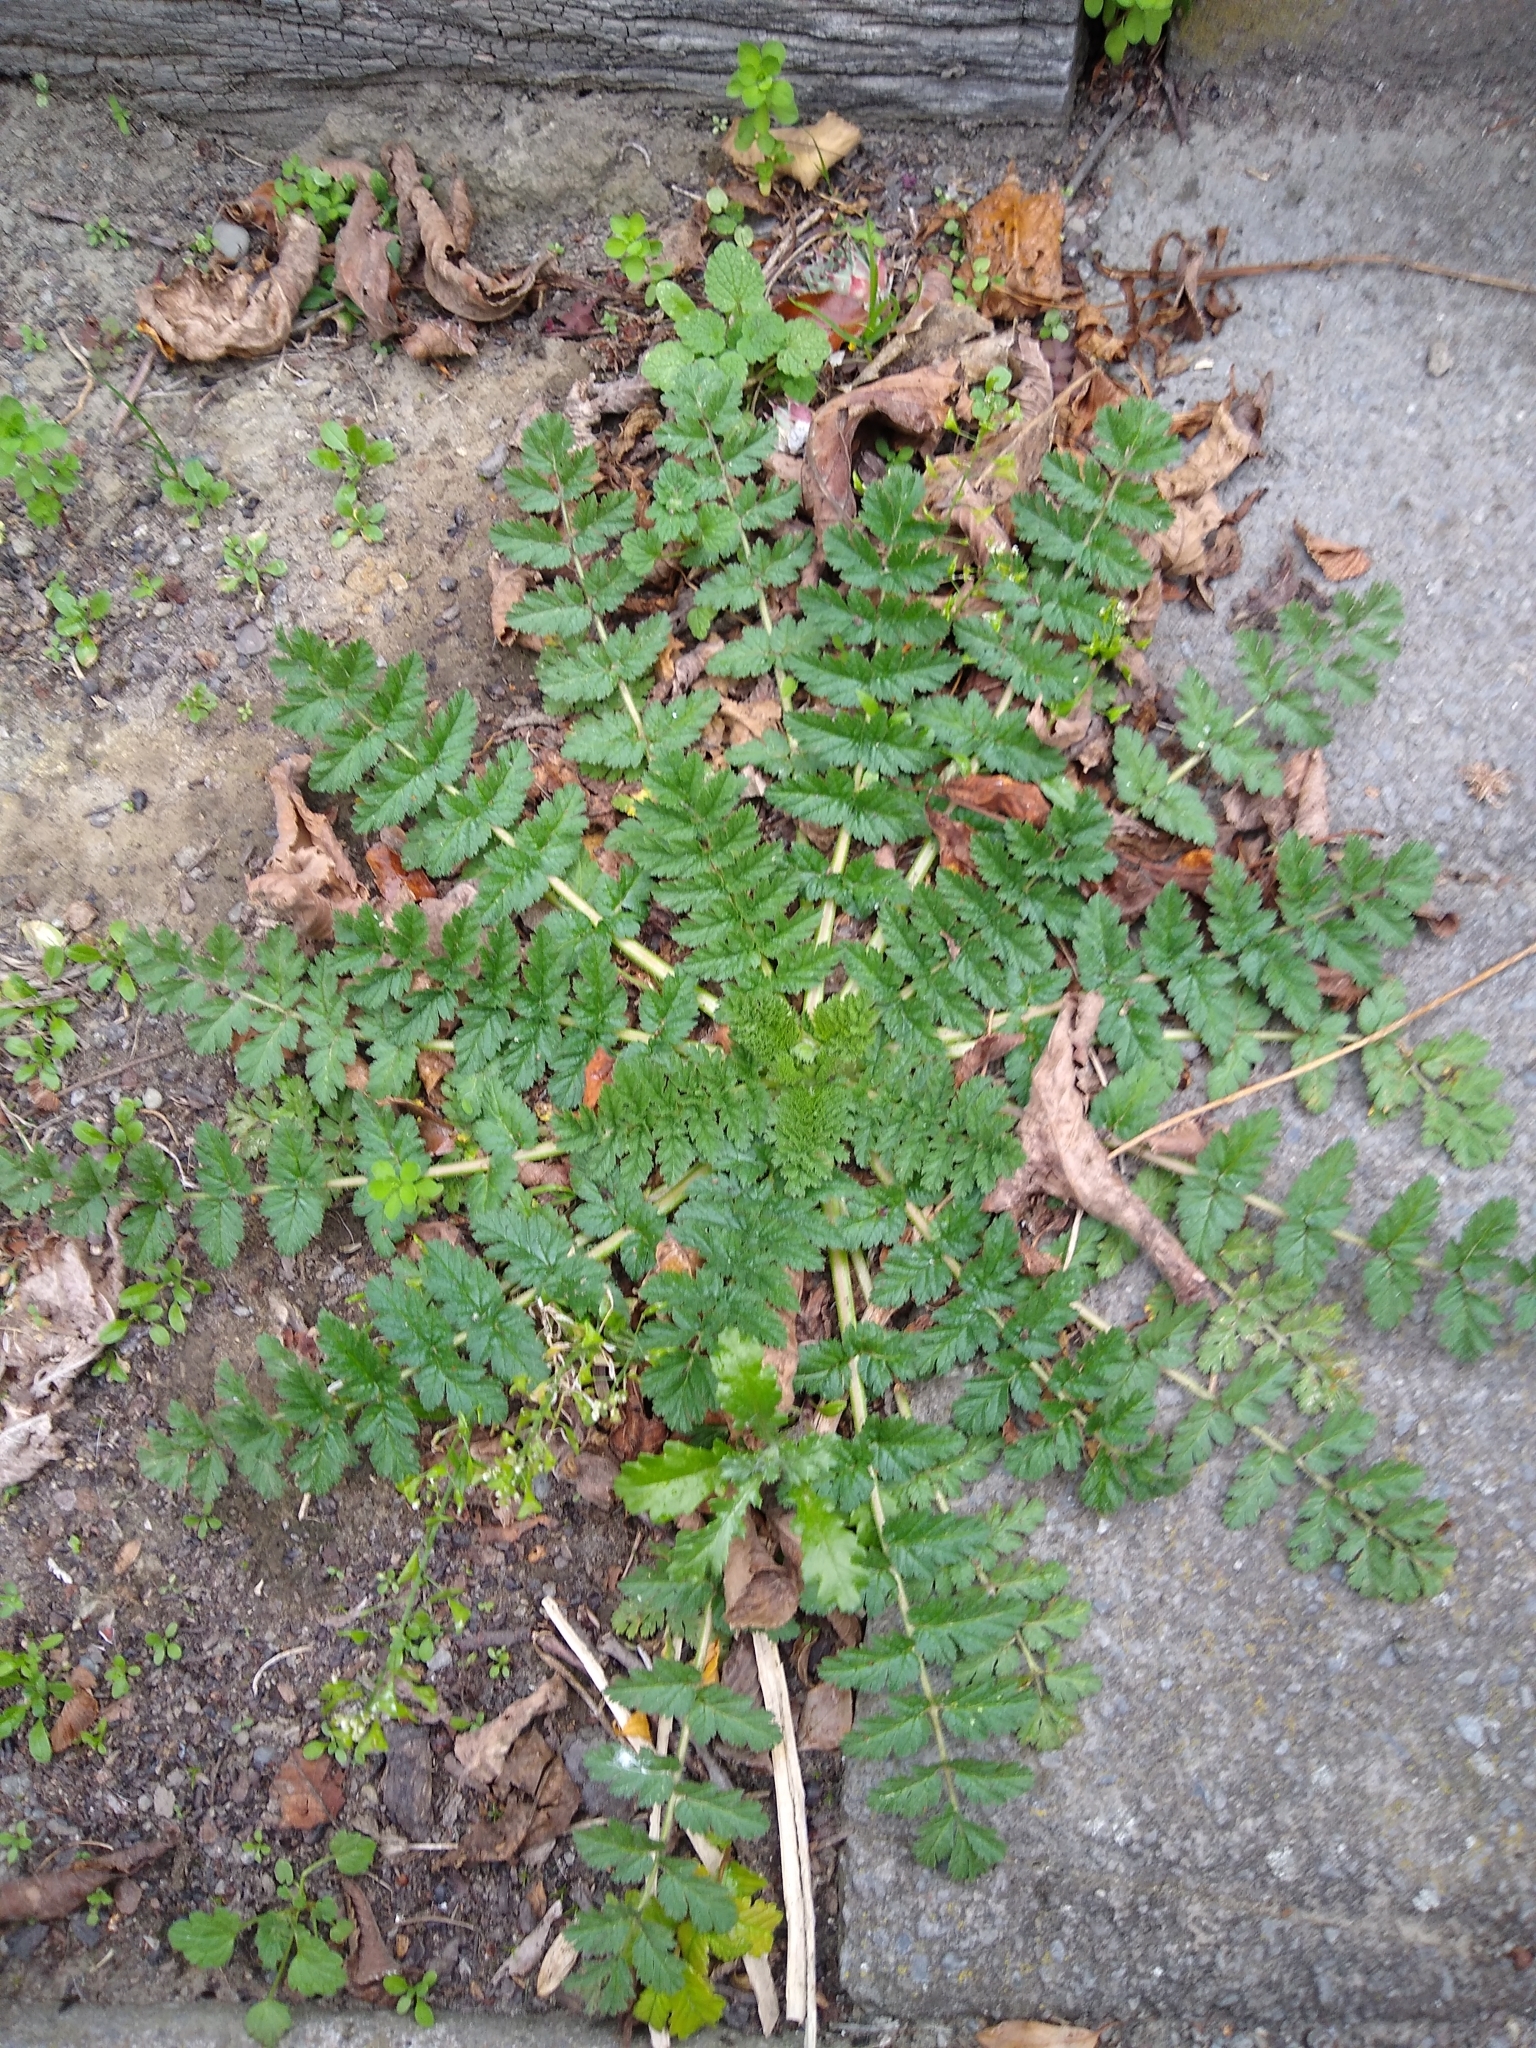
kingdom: Plantae
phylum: Tracheophyta
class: Magnoliopsida
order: Geraniales
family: Geraniaceae
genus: Erodium
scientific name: Erodium moschatum
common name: Musk stork's-bill
